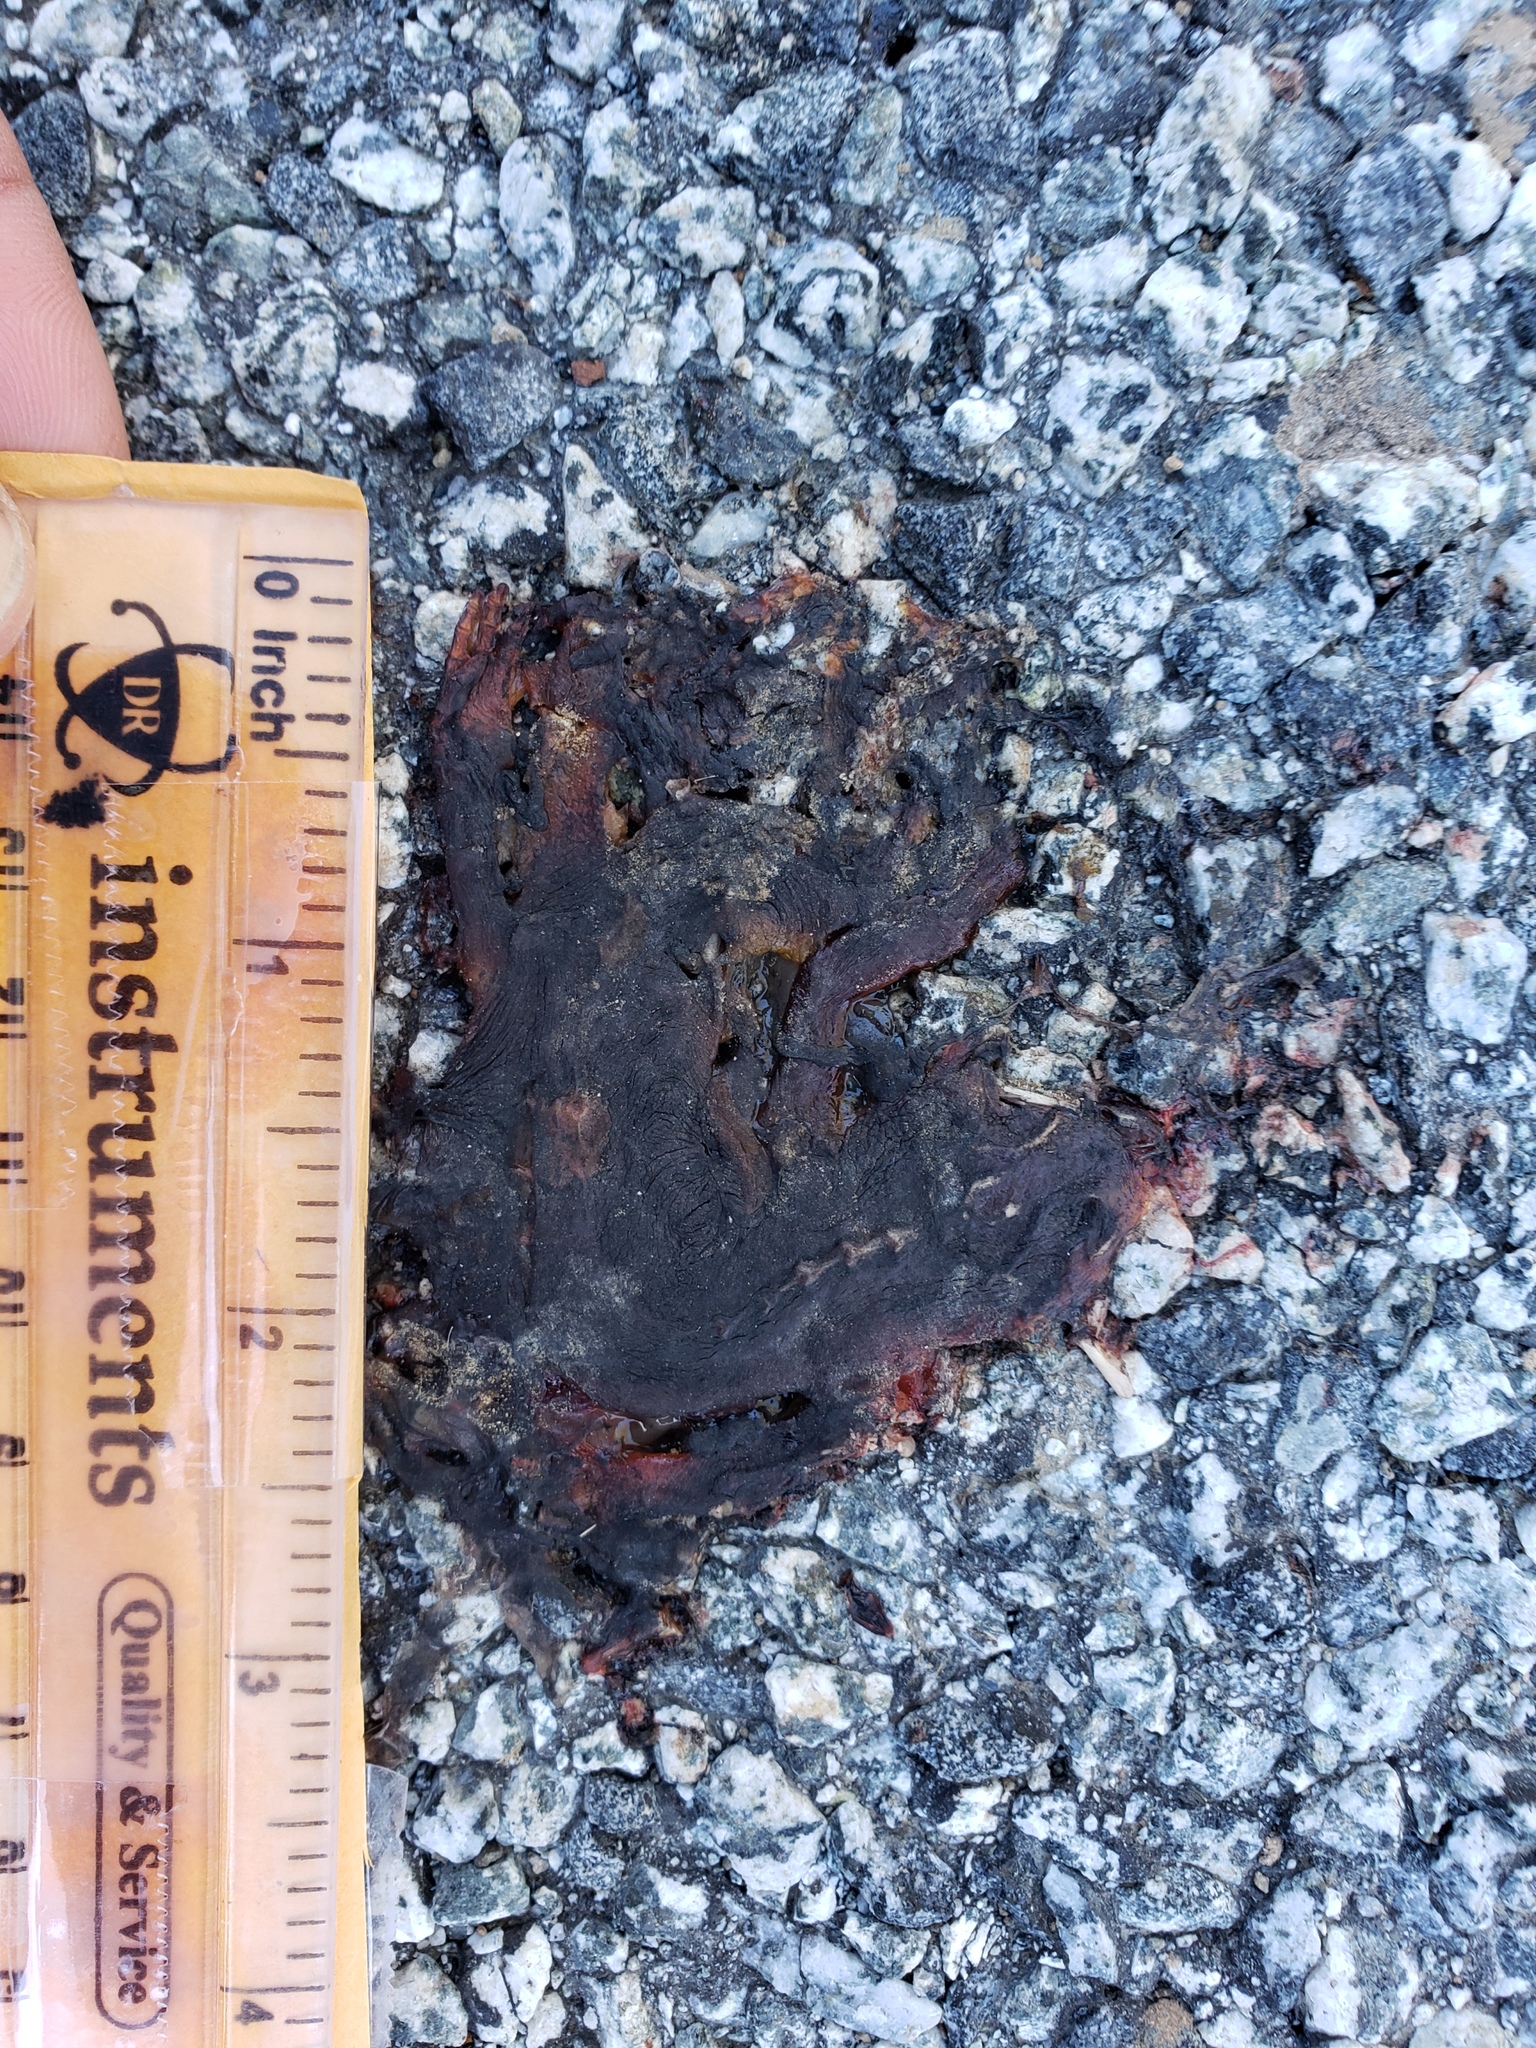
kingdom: Animalia
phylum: Chordata
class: Amphibia
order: Caudata
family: Salamandridae
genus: Taricha
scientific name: Taricha
